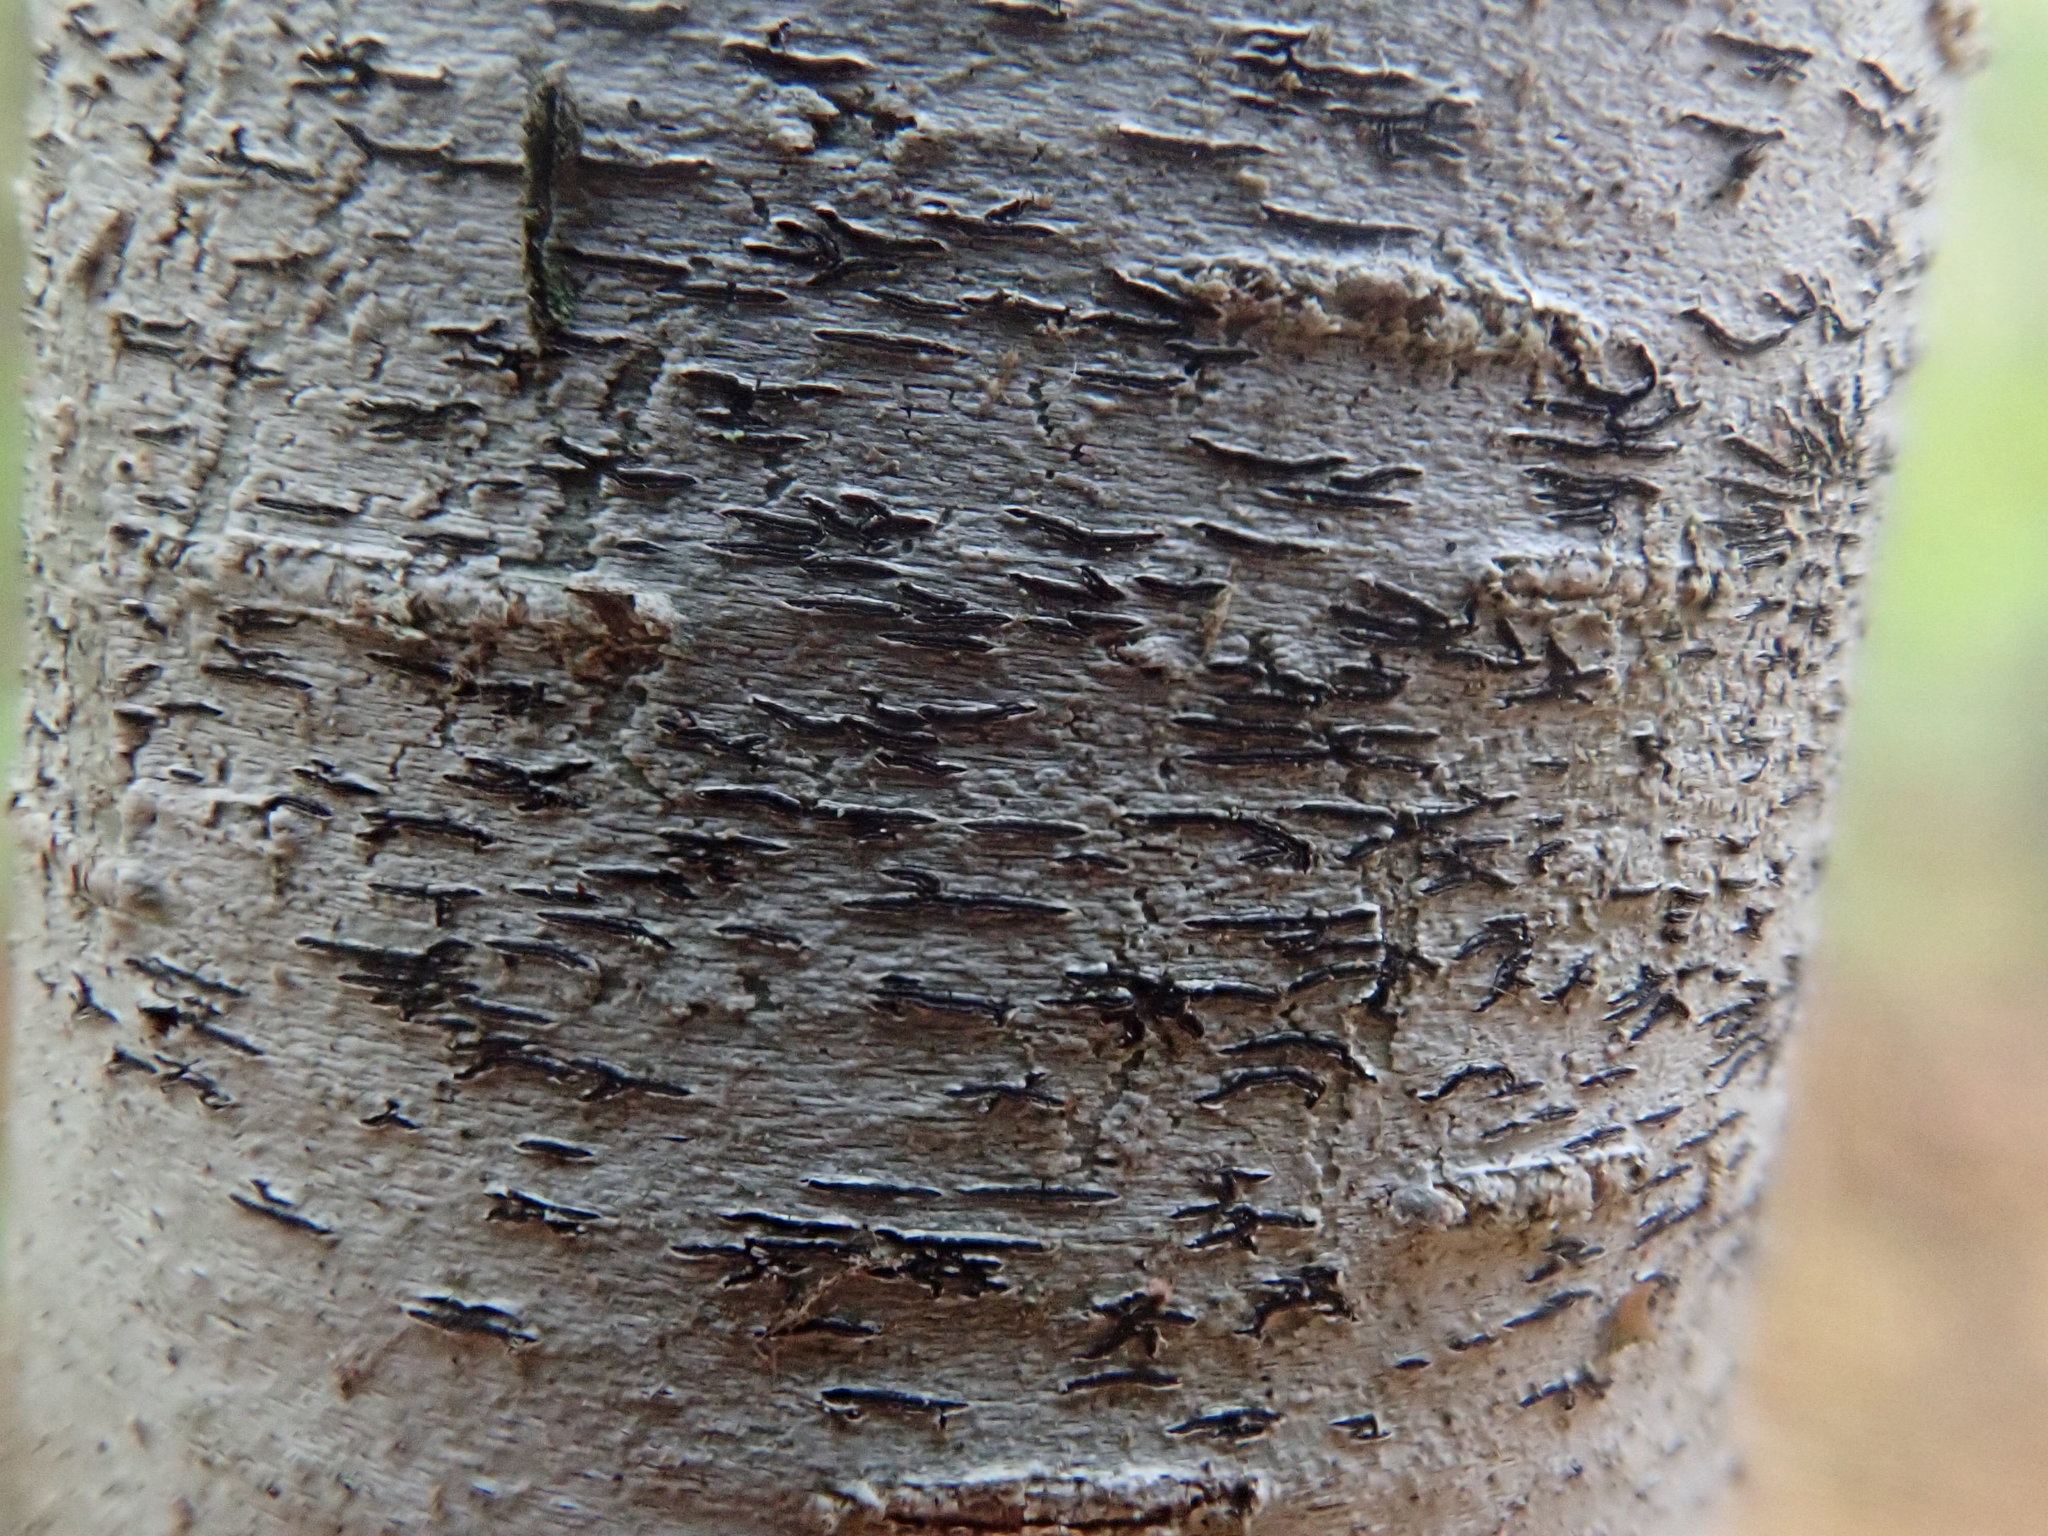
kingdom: Fungi
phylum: Ascomycota
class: Lecanoromycetes
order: Ostropales
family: Graphidaceae
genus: Graphis
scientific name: Graphis scripta
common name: Script lichen
